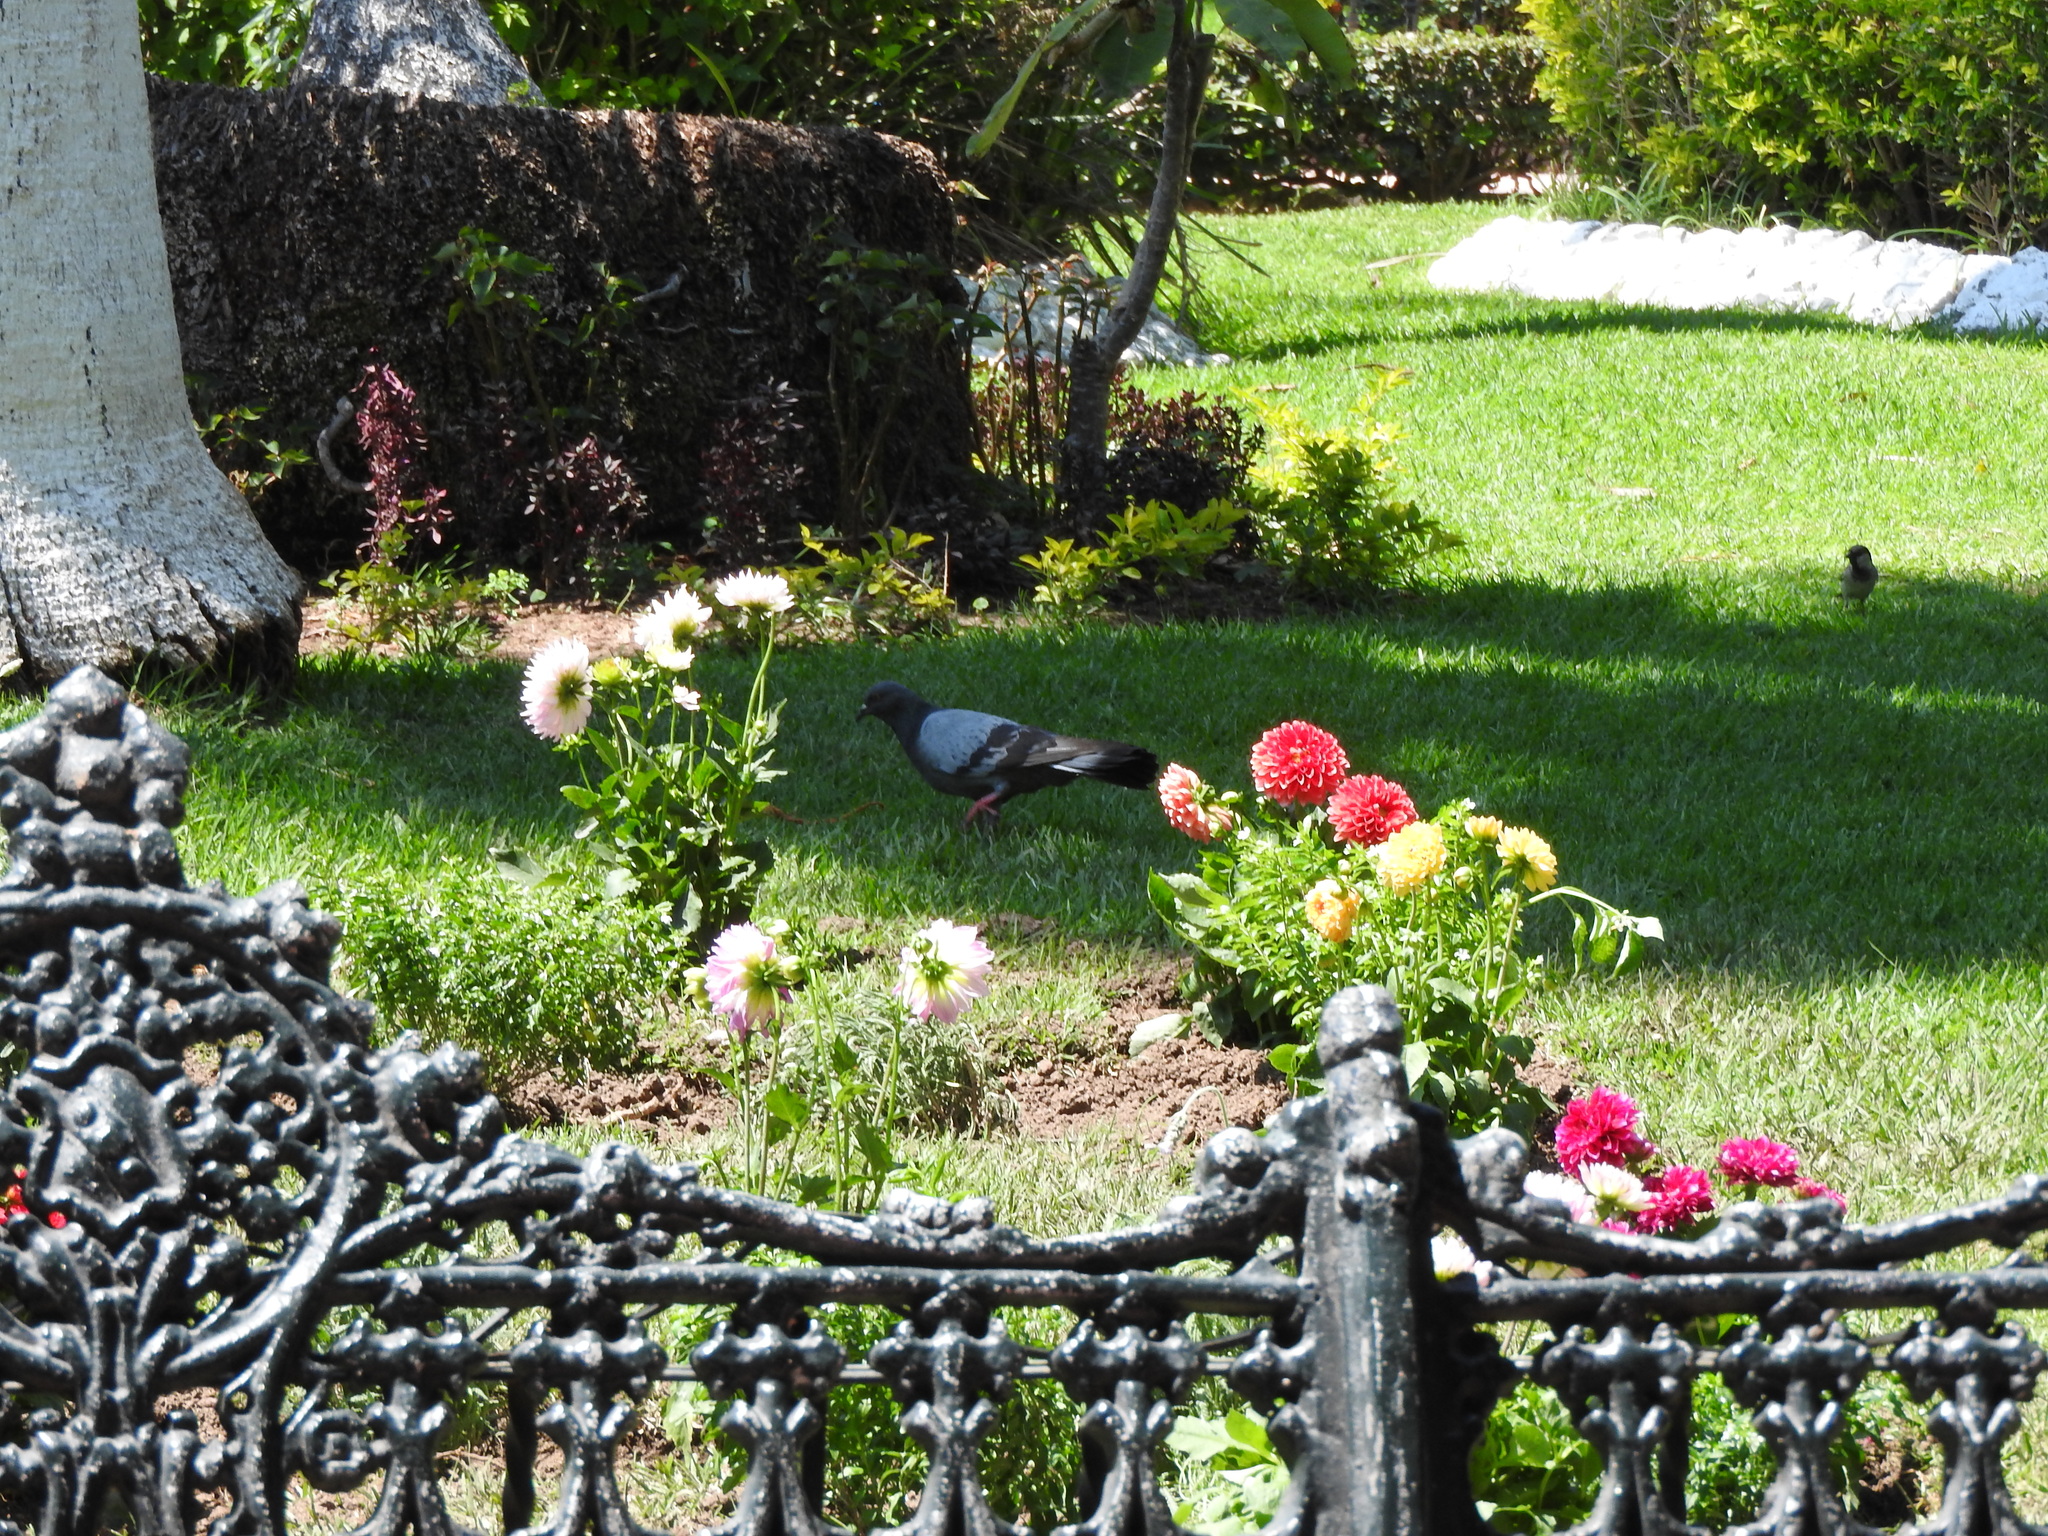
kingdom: Animalia
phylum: Chordata
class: Aves
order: Columbiformes
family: Columbidae
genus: Columba
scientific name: Columba livia
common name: Rock pigeon
